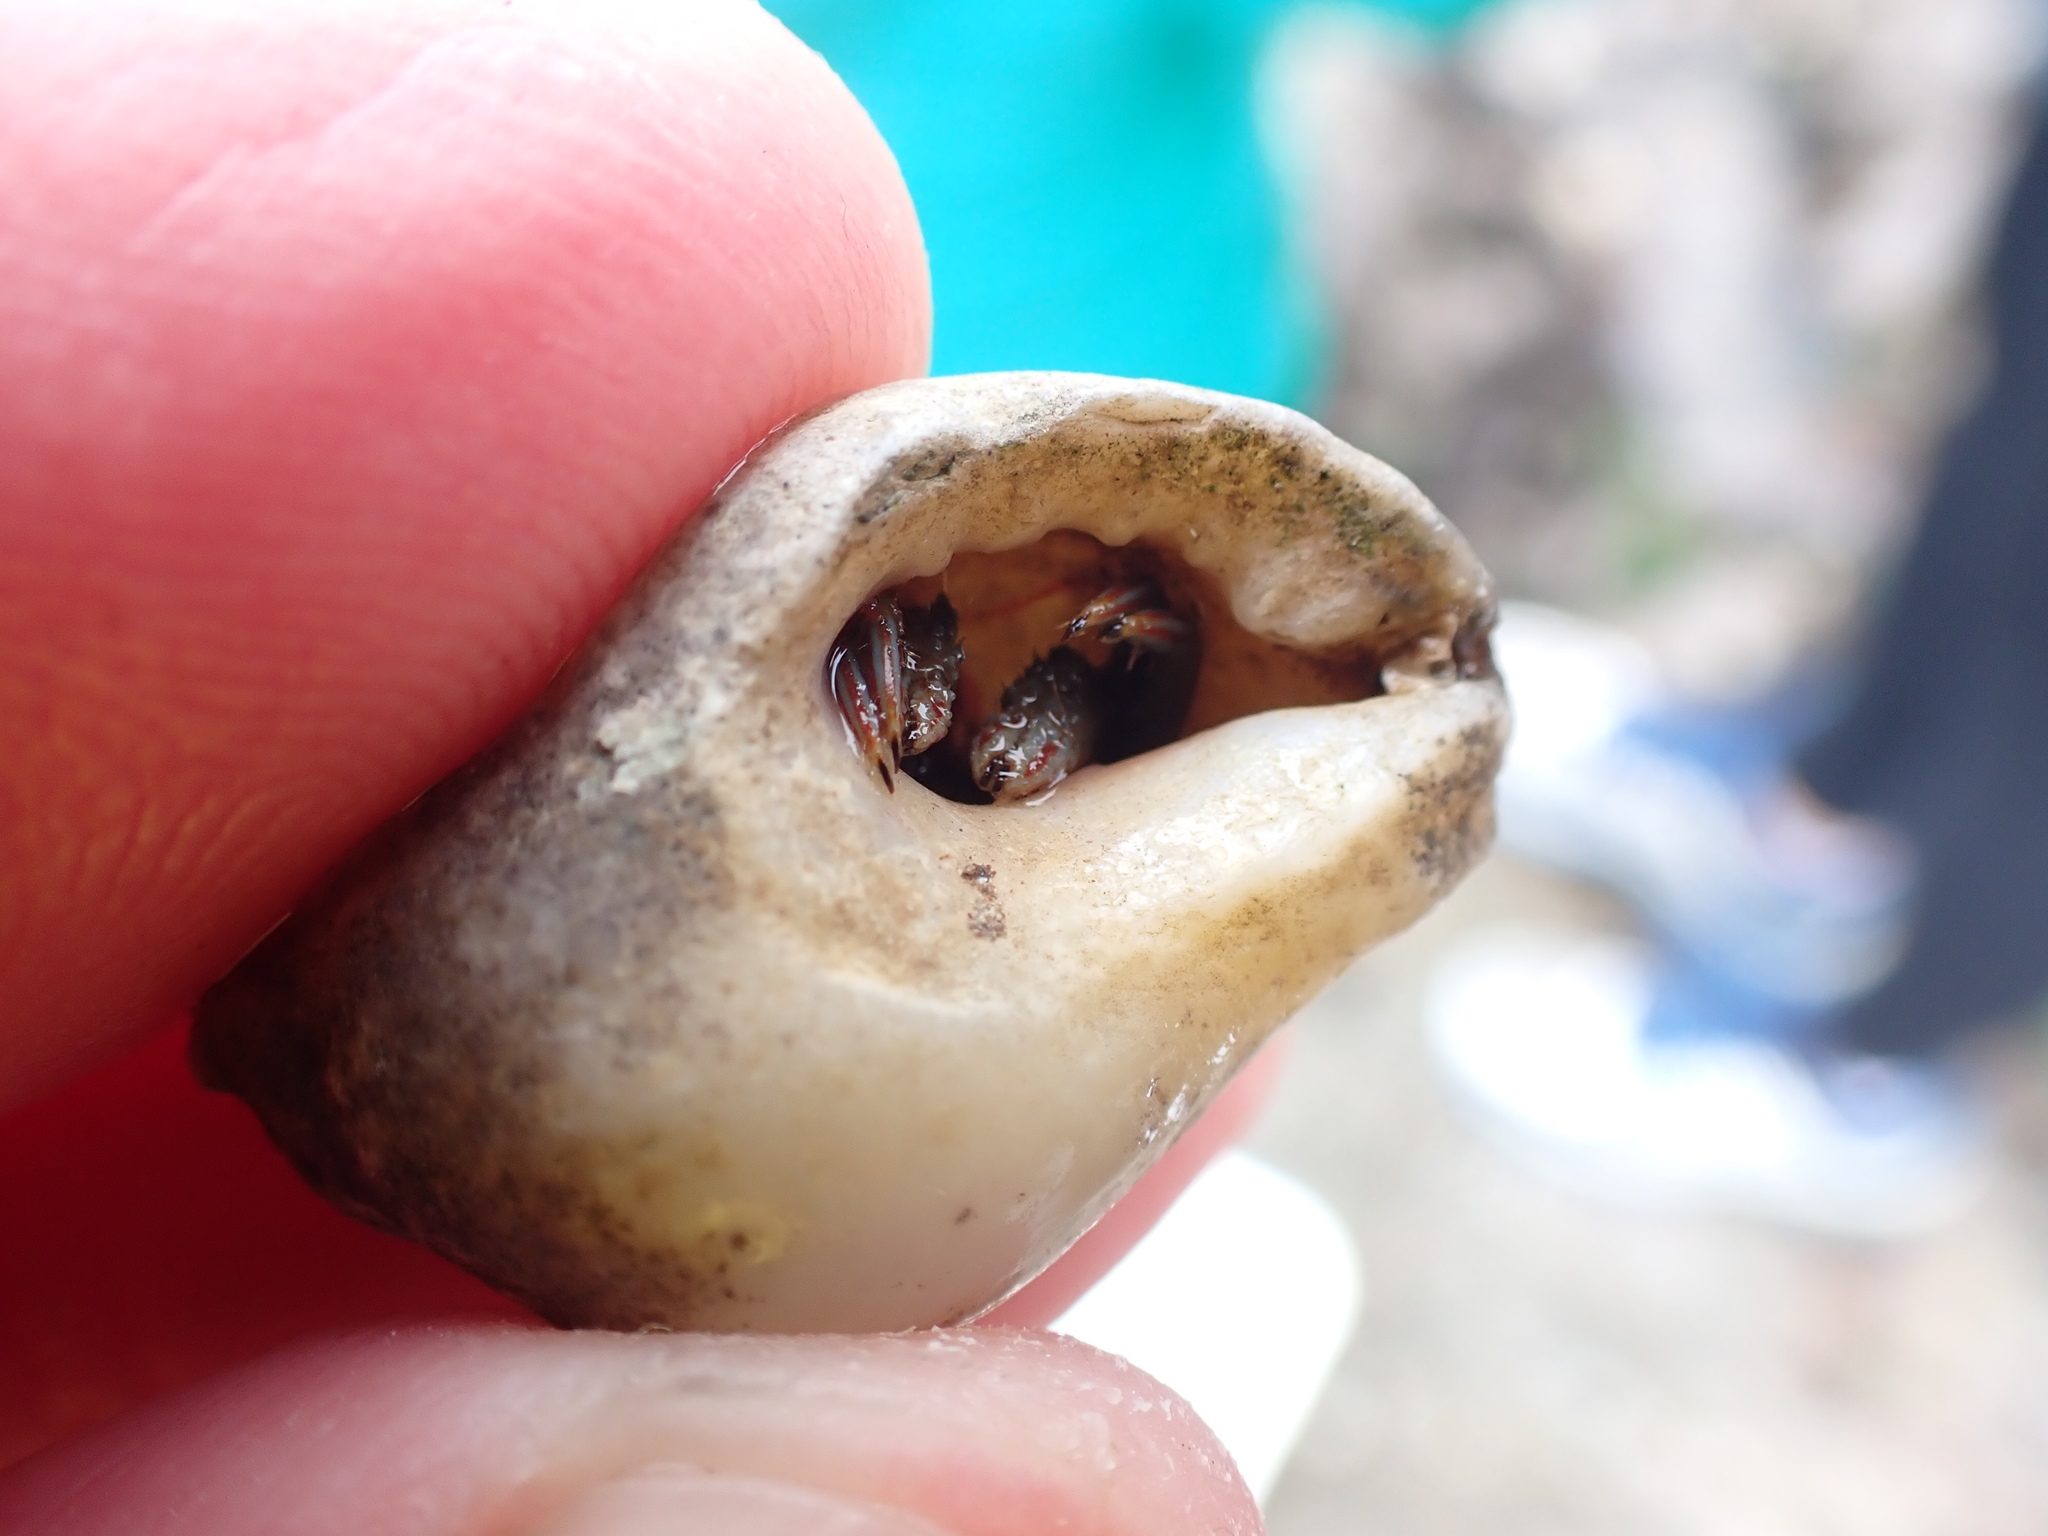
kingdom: Animalia
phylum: Arthropoda
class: Malacostraca
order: Decapoda
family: Diogenidae
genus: Clibanarius
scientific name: Clibanarius erythropus
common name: Hermit crab
